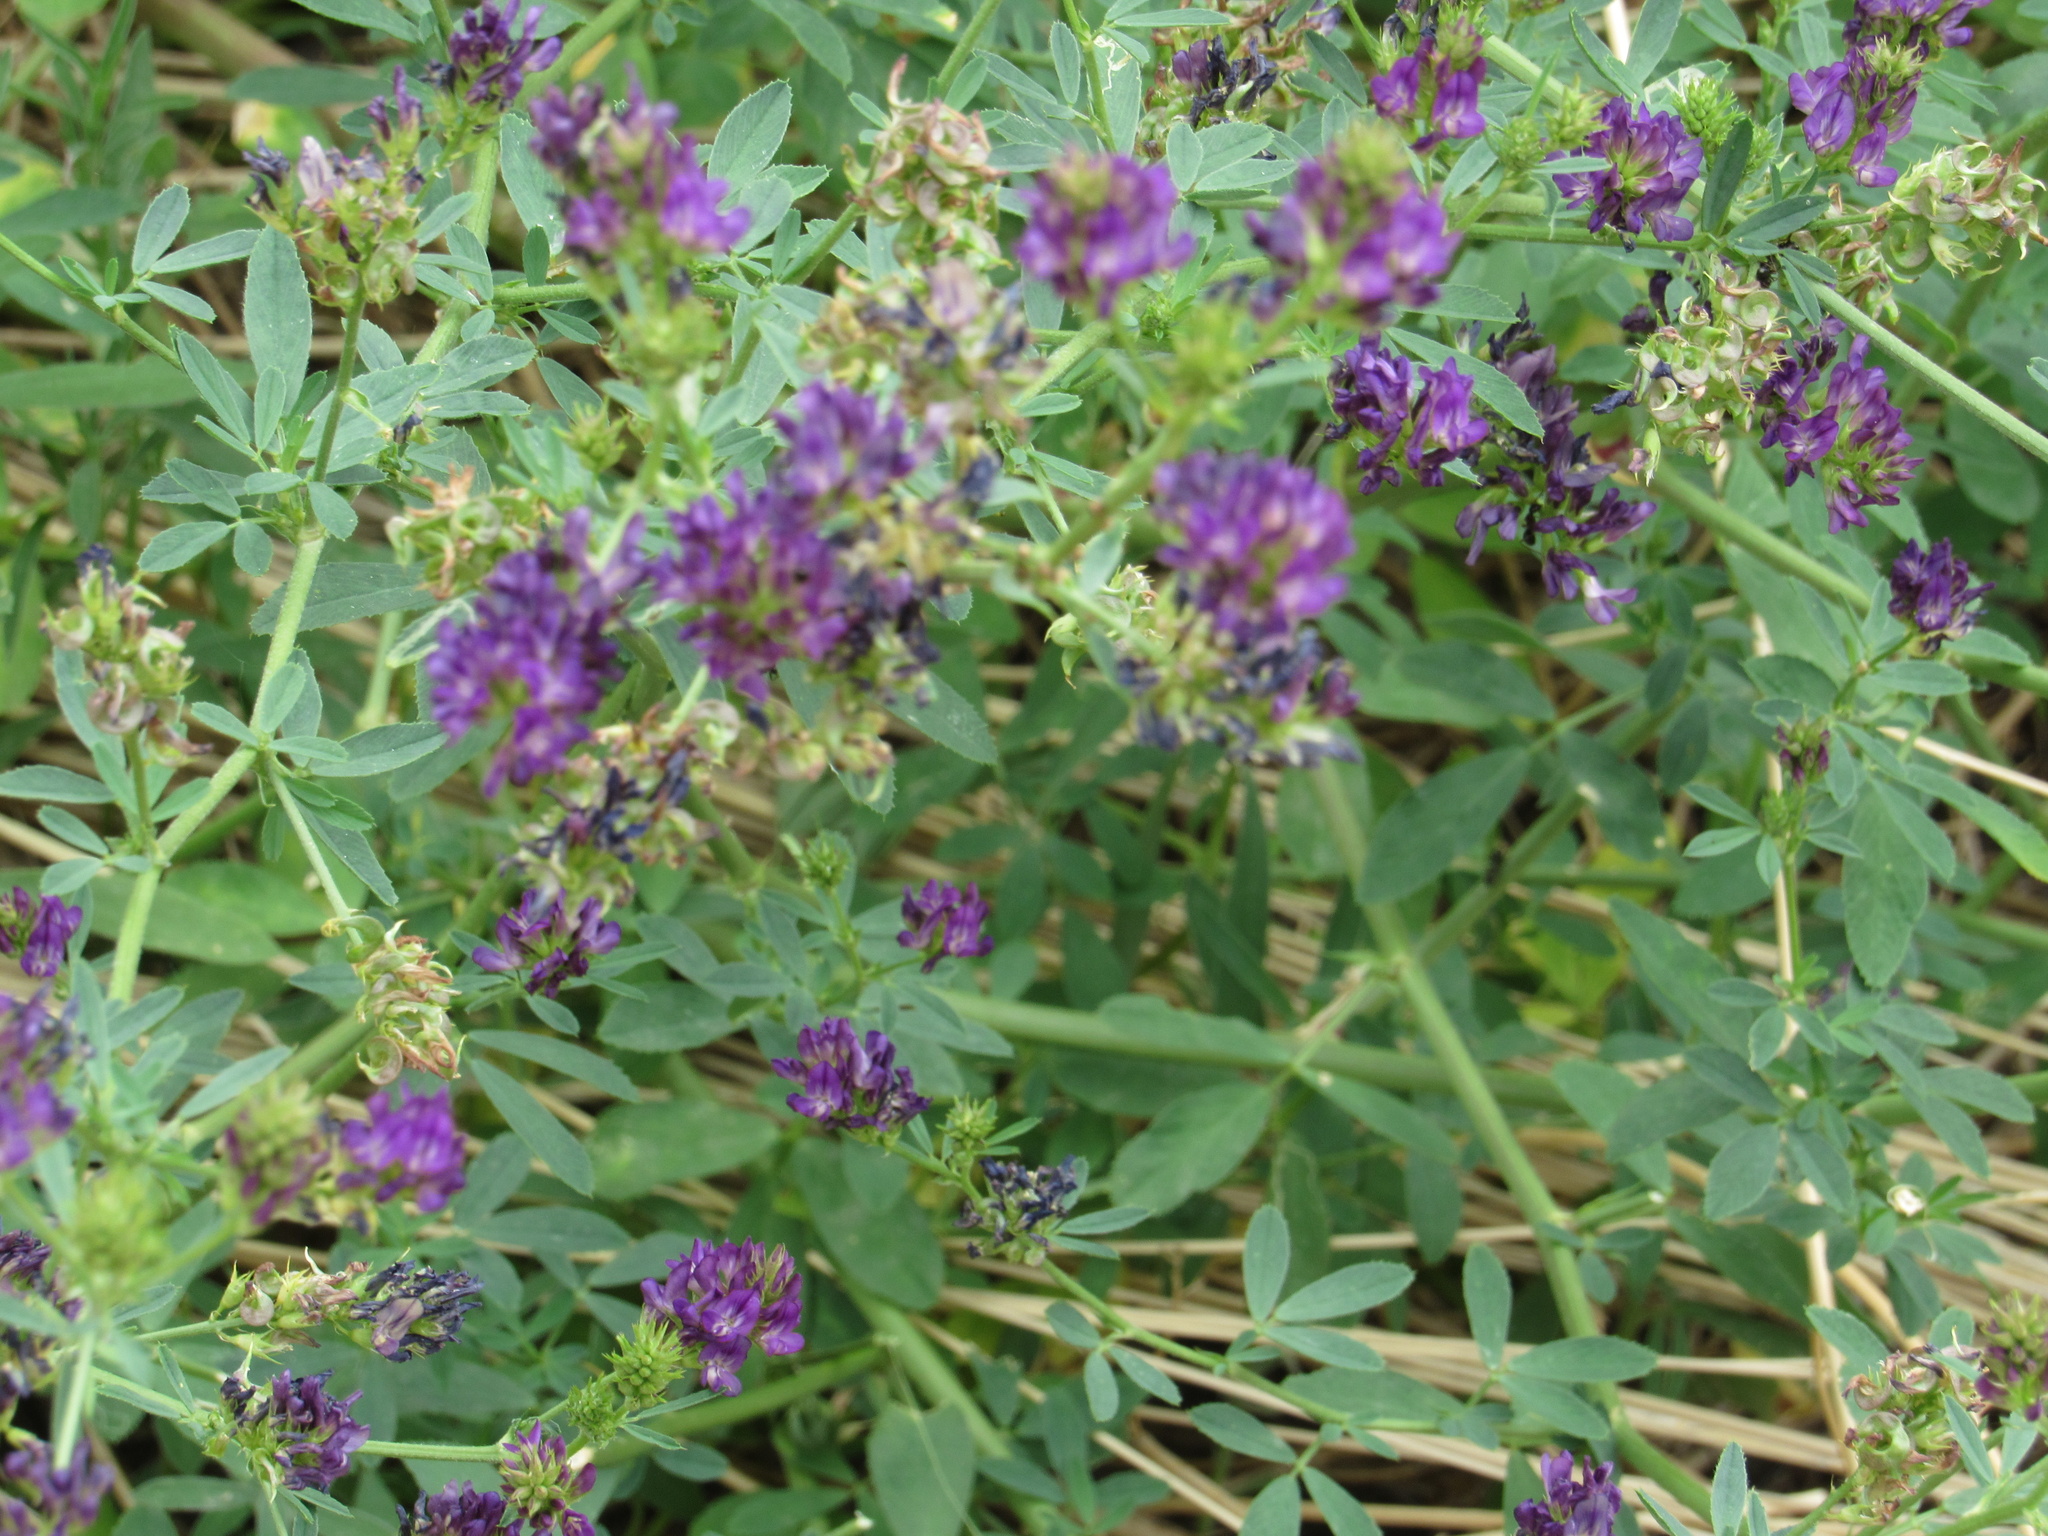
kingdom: Plantae
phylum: Tracheophyta
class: Magnoliopsida
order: Fabales
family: Fabaceae
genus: Medicago
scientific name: Medicago sativa
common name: Alfalfa
